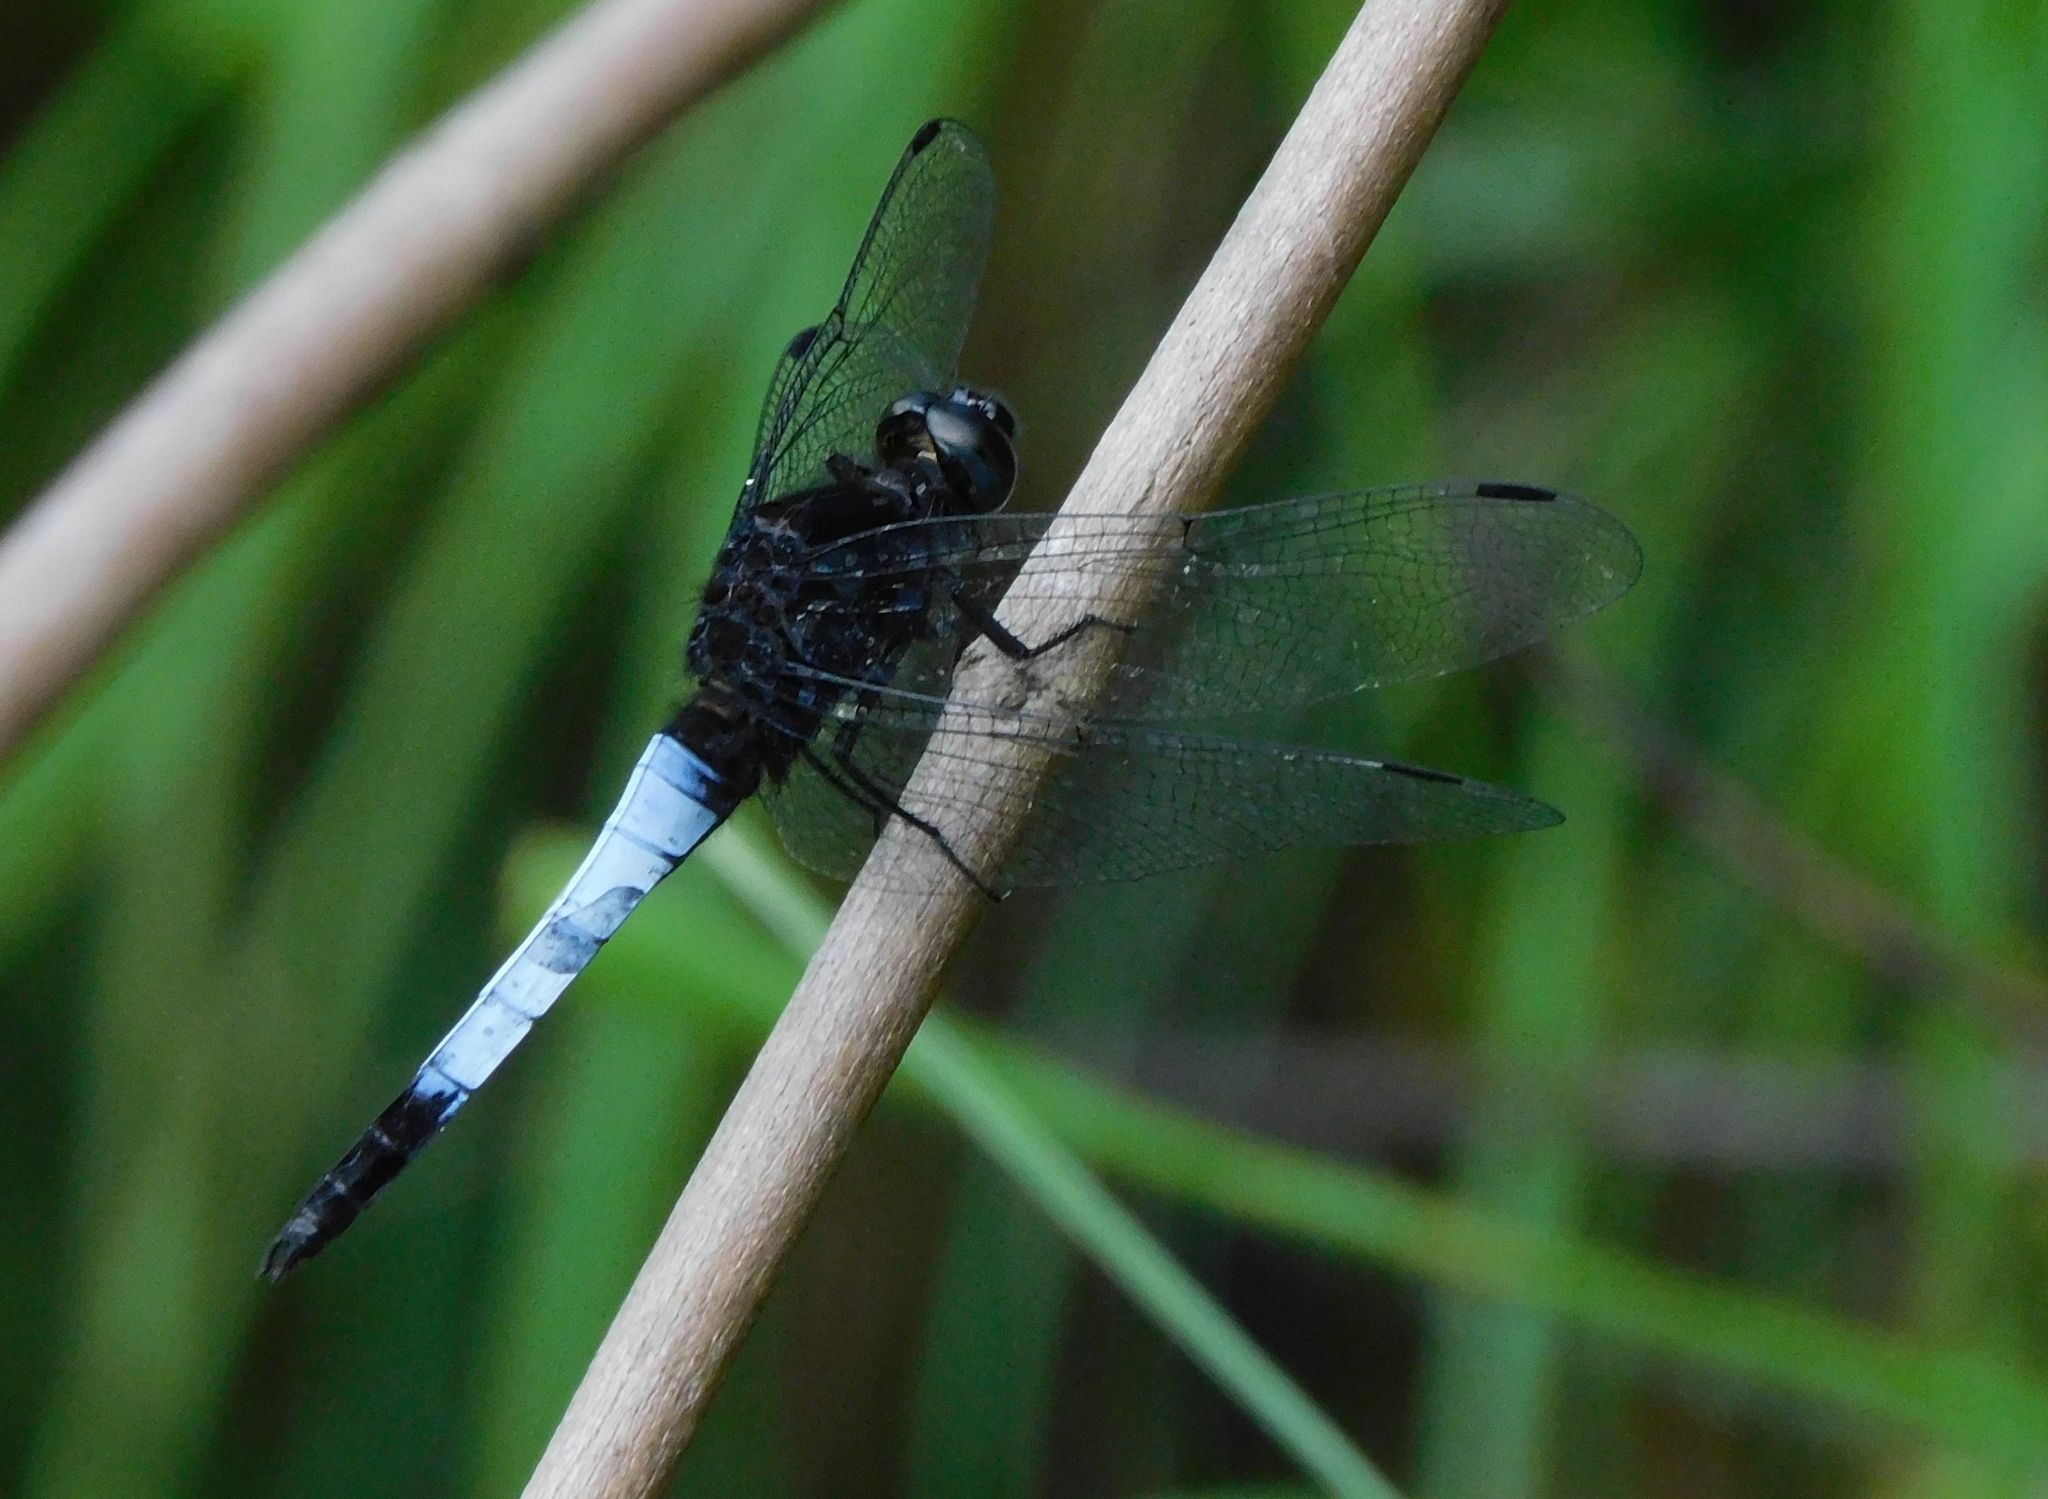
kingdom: Animalia
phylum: Arthropoda
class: Insecta
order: Odonata
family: Libellulidae
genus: Orthetrum
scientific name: Orthetrum triangulare
